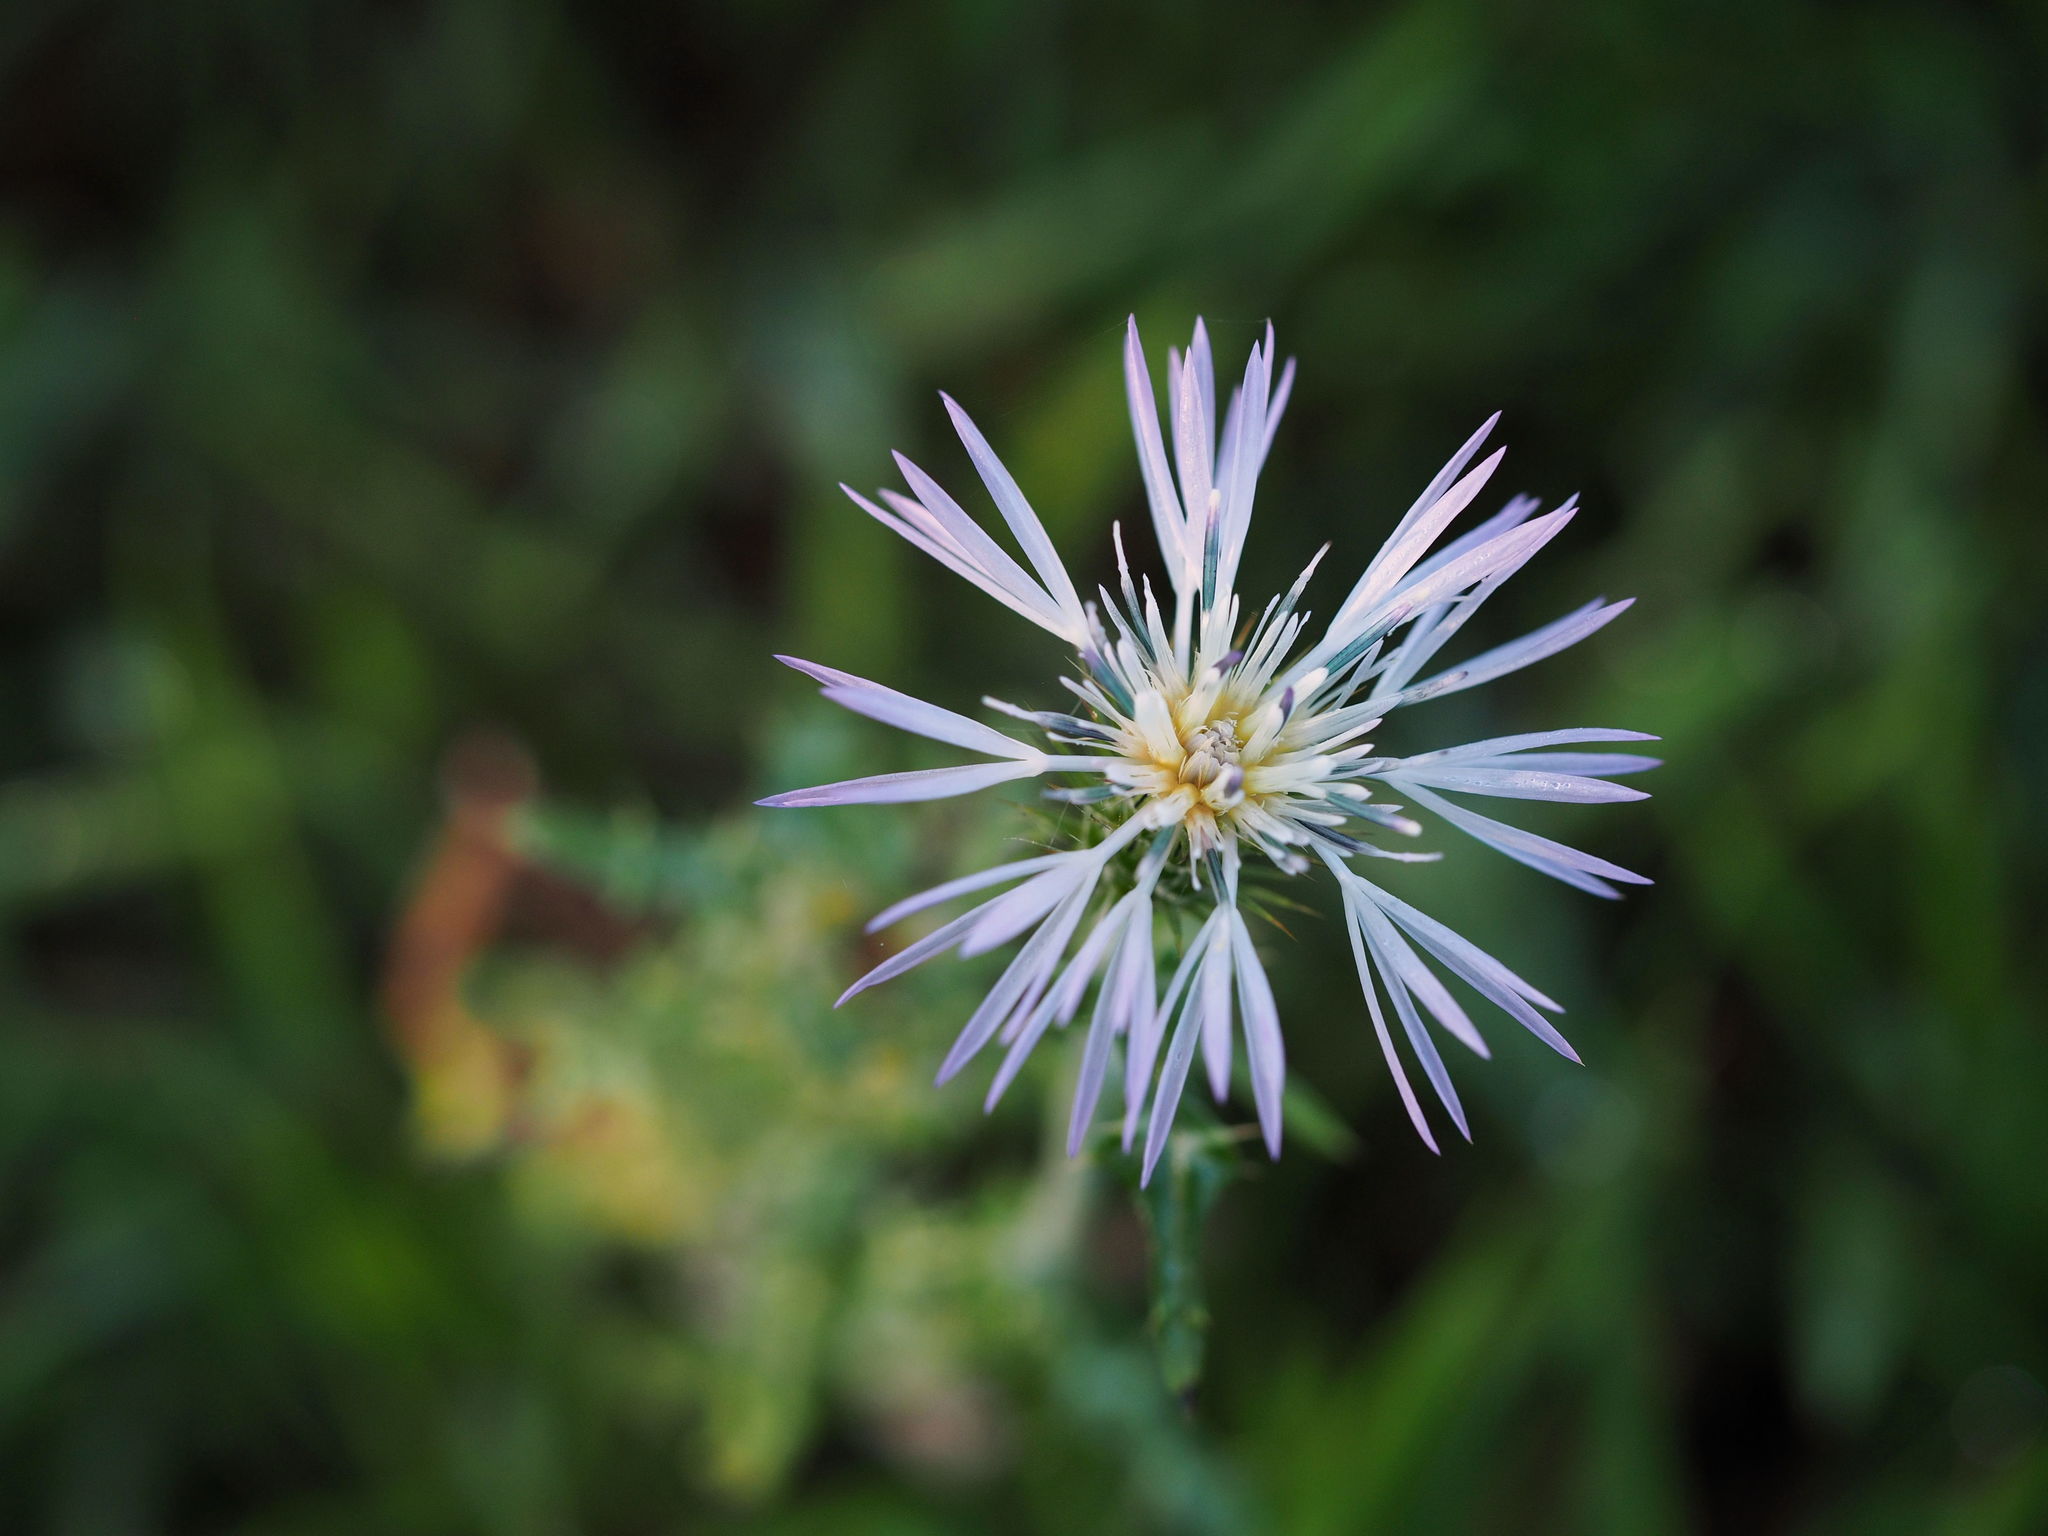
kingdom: Plantae
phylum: Tracheophyta
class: Magnoliopsida
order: Asterales
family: Asteraceae
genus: Galactites
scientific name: Galactites tomentosa
